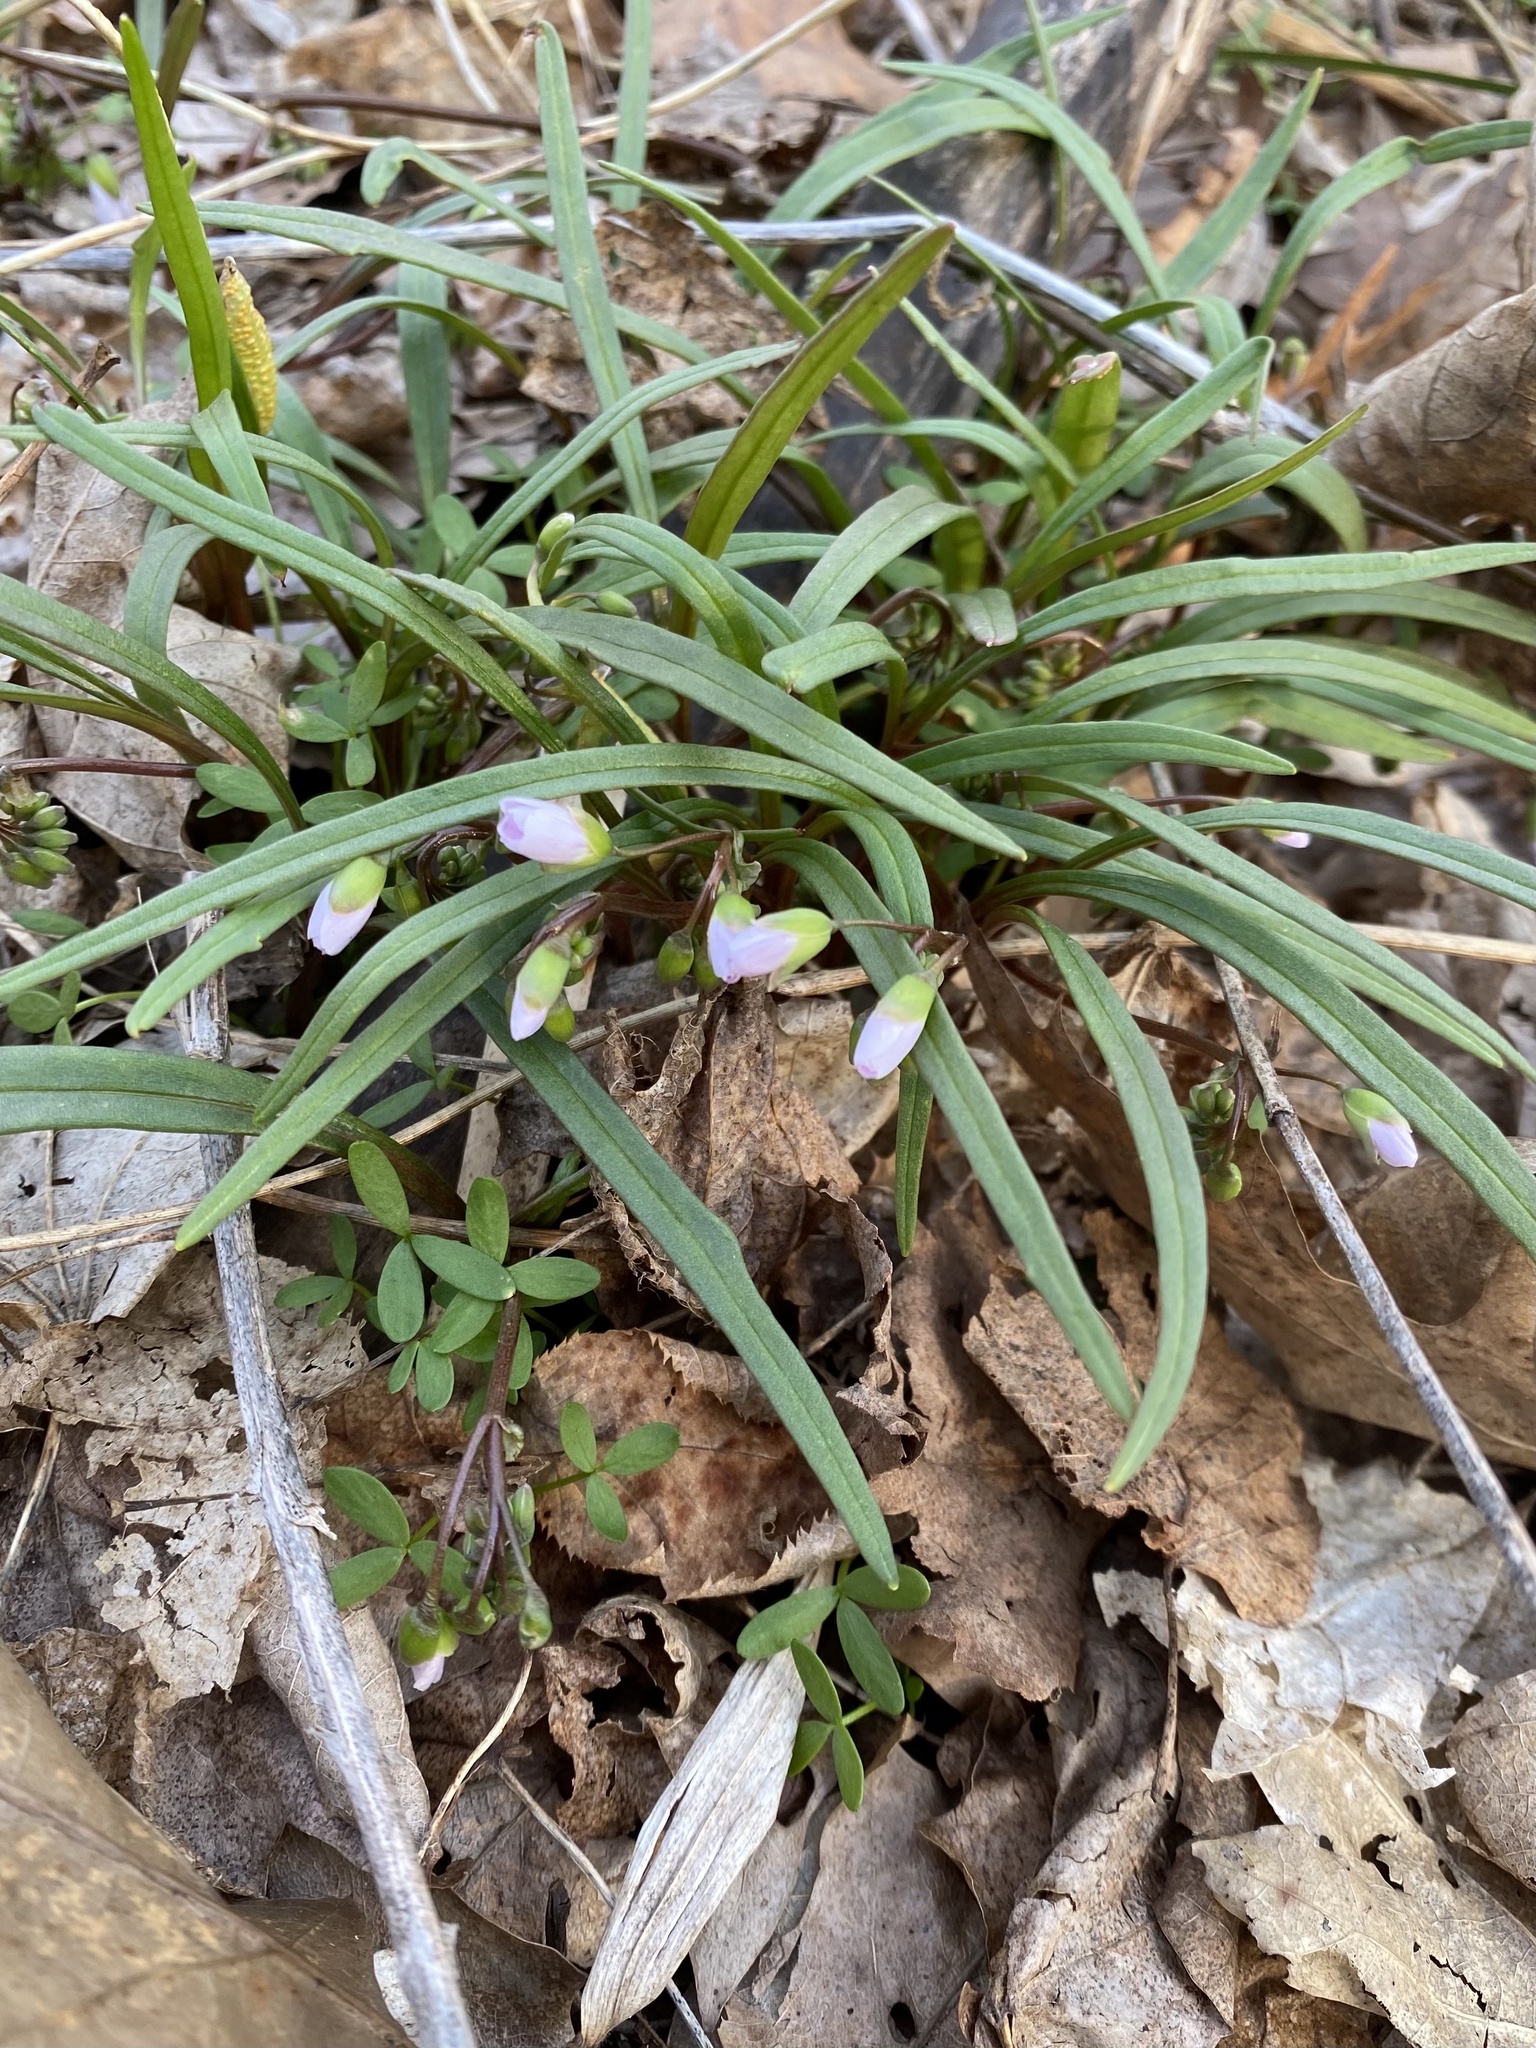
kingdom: Plantae
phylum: Tracheophyta
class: Magnoliopsida
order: Caryophyllales
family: Montiaceae
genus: Claytonia
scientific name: Claytonia virginica
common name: Virginia springbeauty
